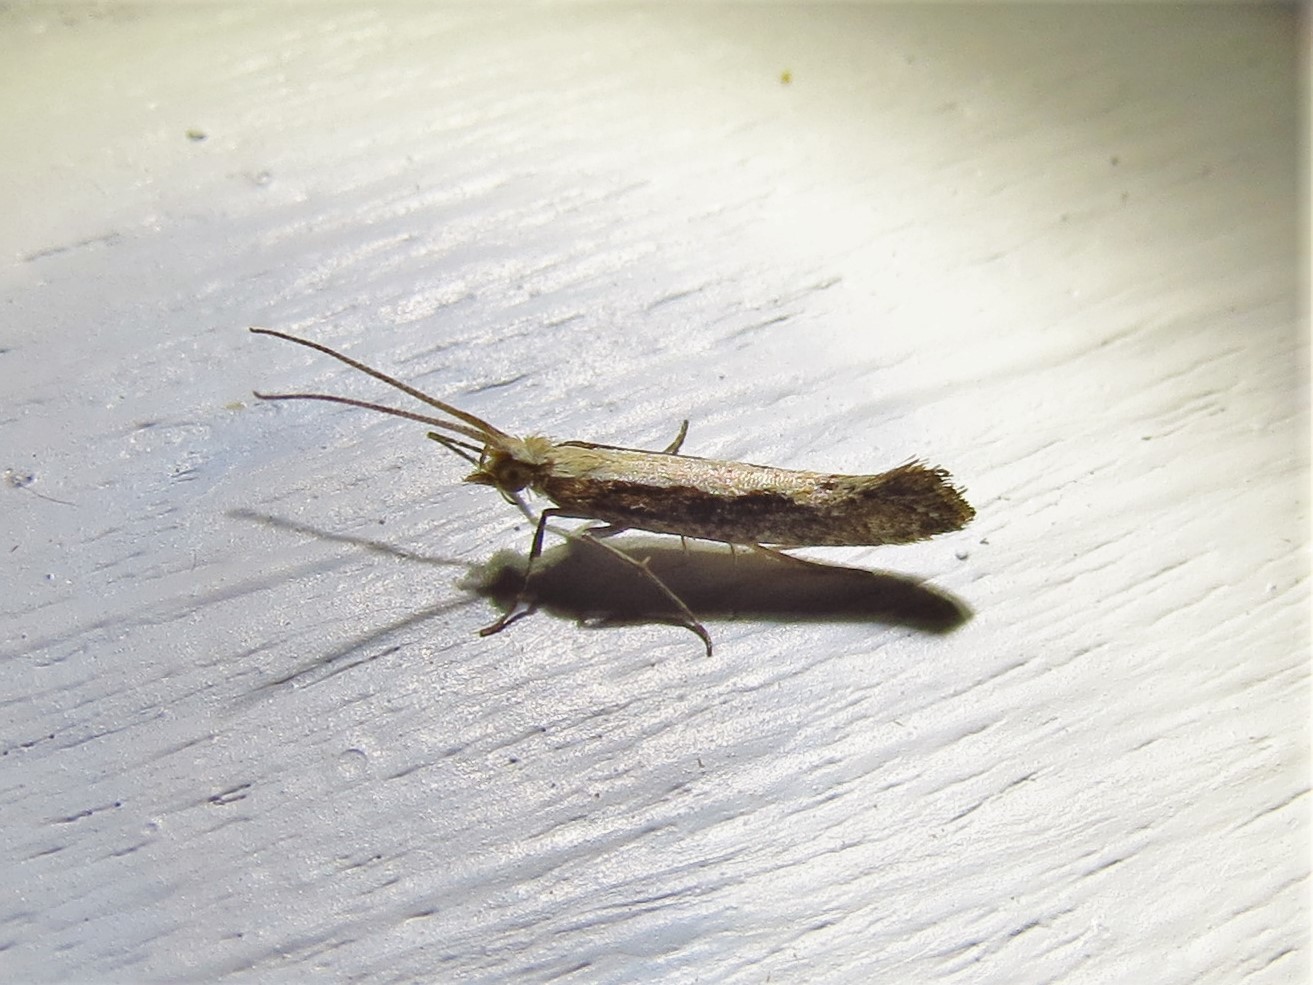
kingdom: Animalia
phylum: Arthropoda
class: Insecta
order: Lepidoptera
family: Plutellidae
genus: Plutella
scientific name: Plutella xylostella
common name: Diamond-back moth
